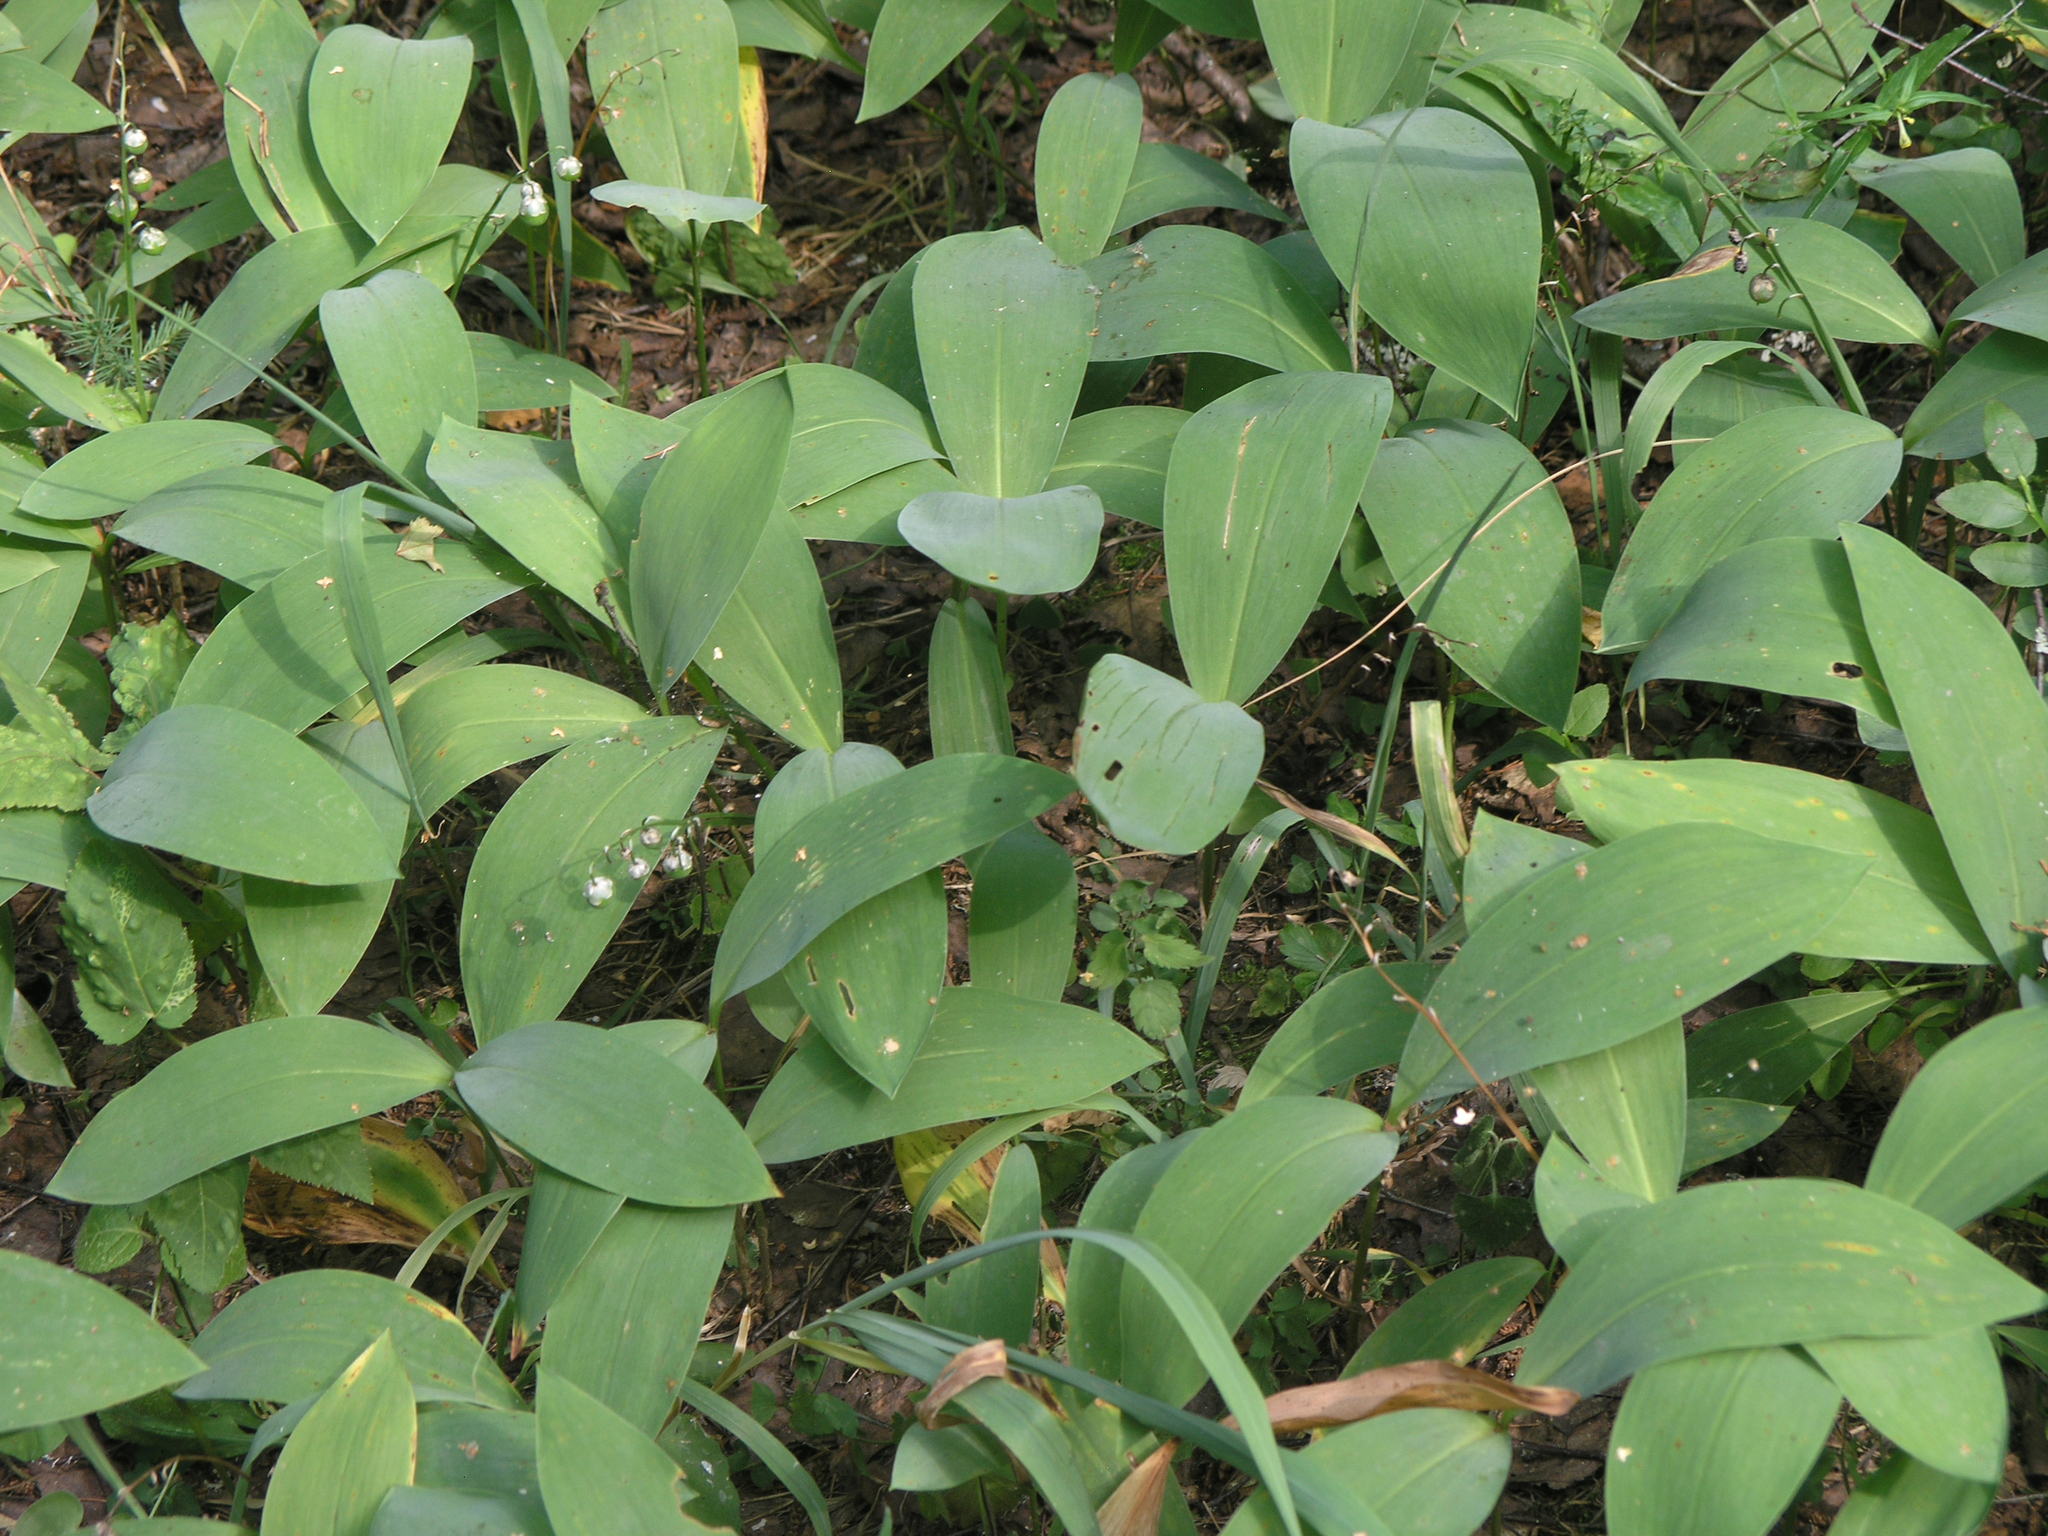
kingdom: Plantae
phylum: Tracheophyta
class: Liliopsida
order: Asparagales
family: Asparagaceae
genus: Convallaria
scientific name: Convallaria majalis
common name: Lily-of-the-valley
